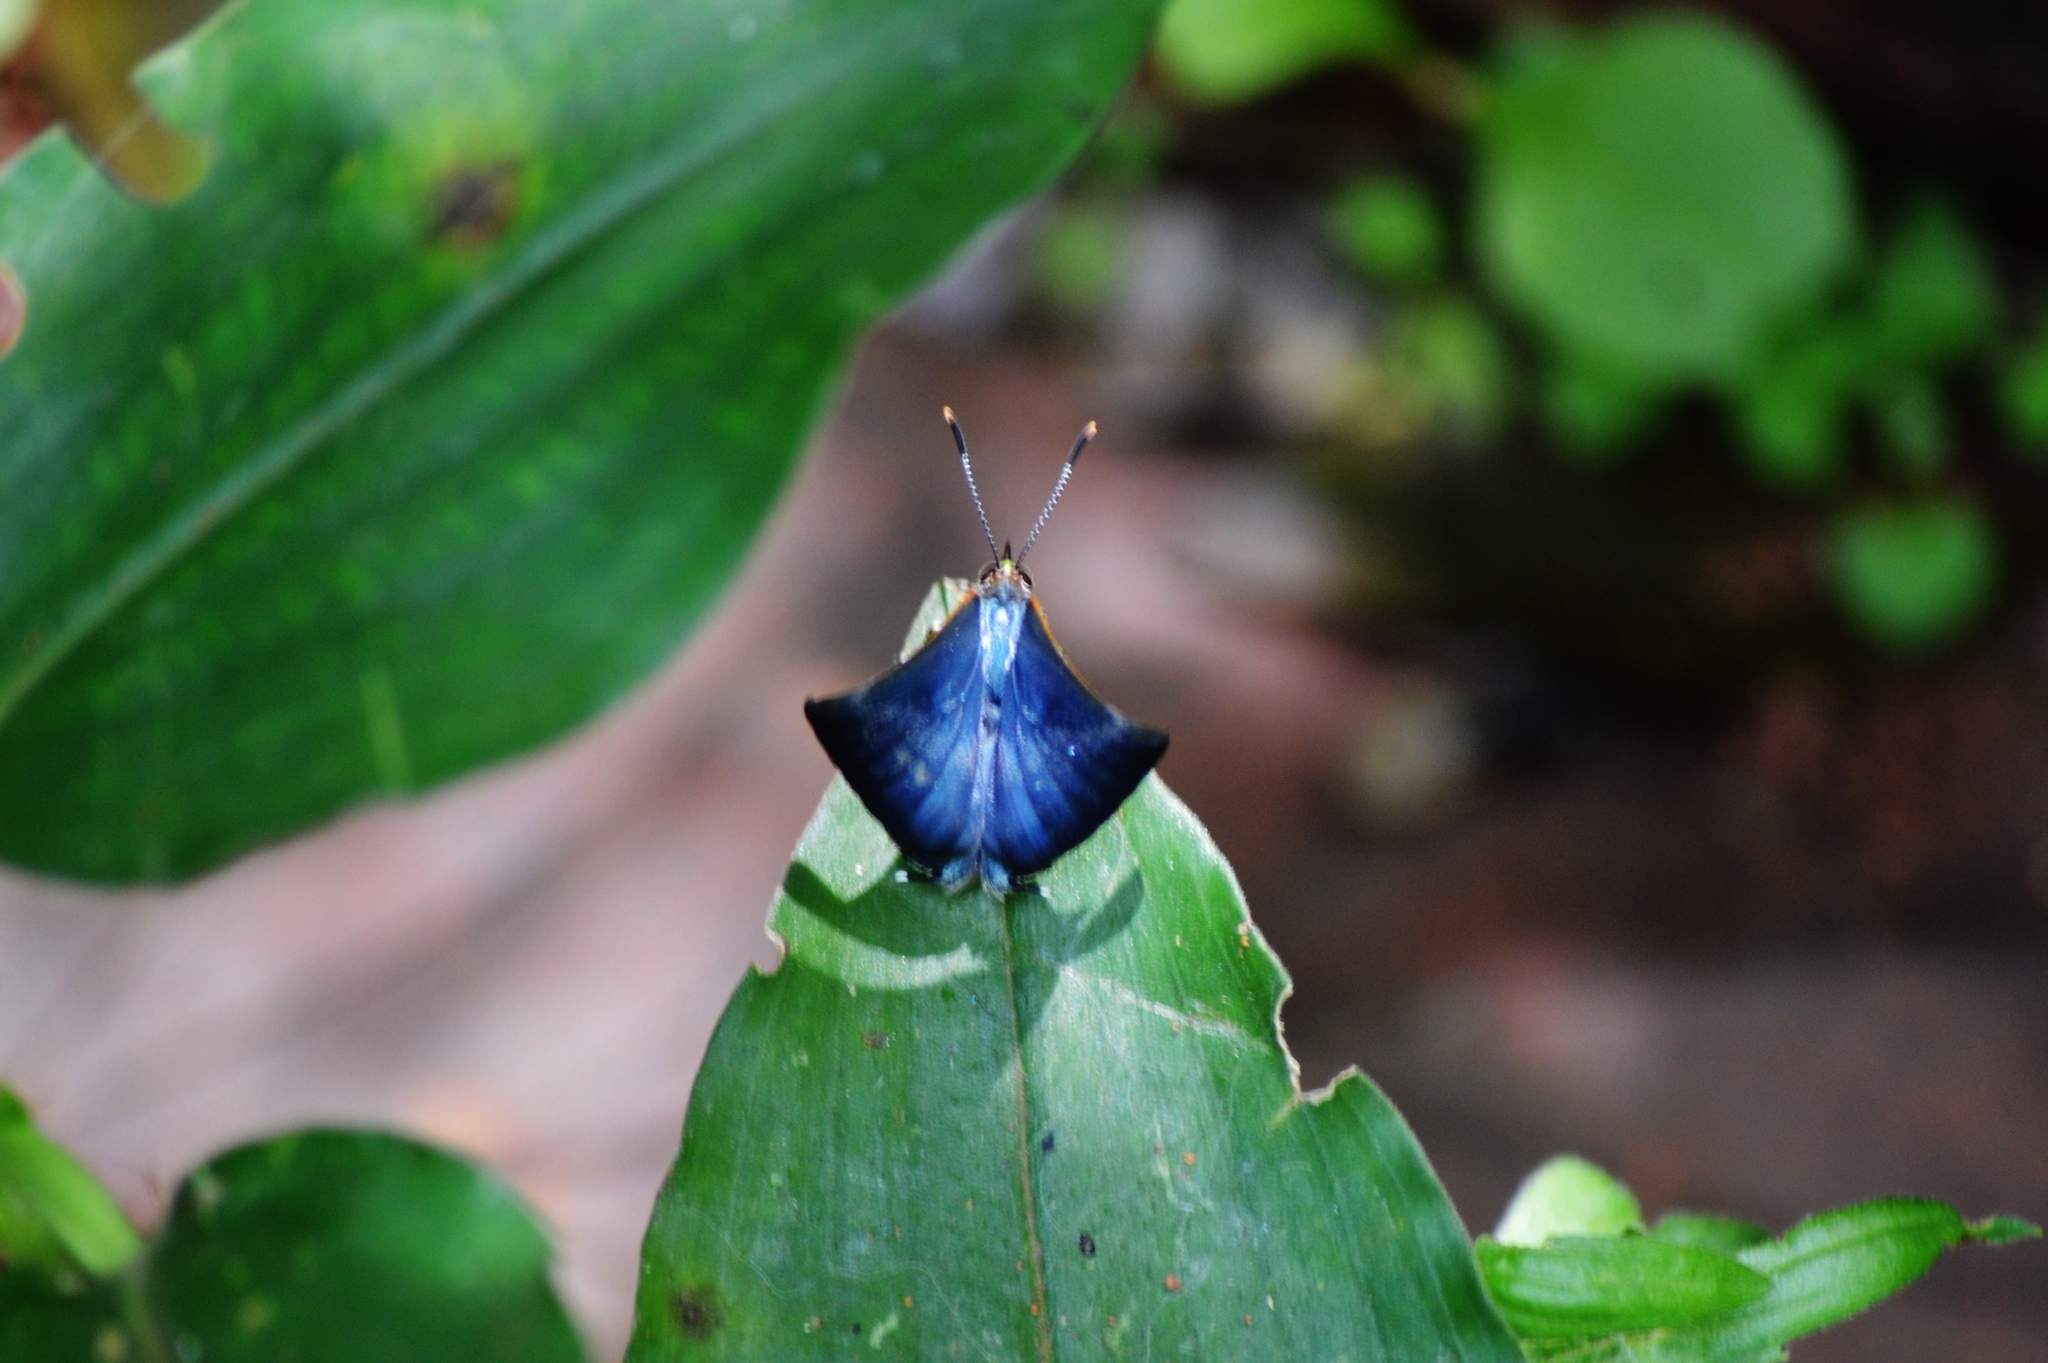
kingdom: Animalia
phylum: Arthropoda
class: Insecta
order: Lepidoptera
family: Lycaenidae
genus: Cyanophrys
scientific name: Cyanophrys
